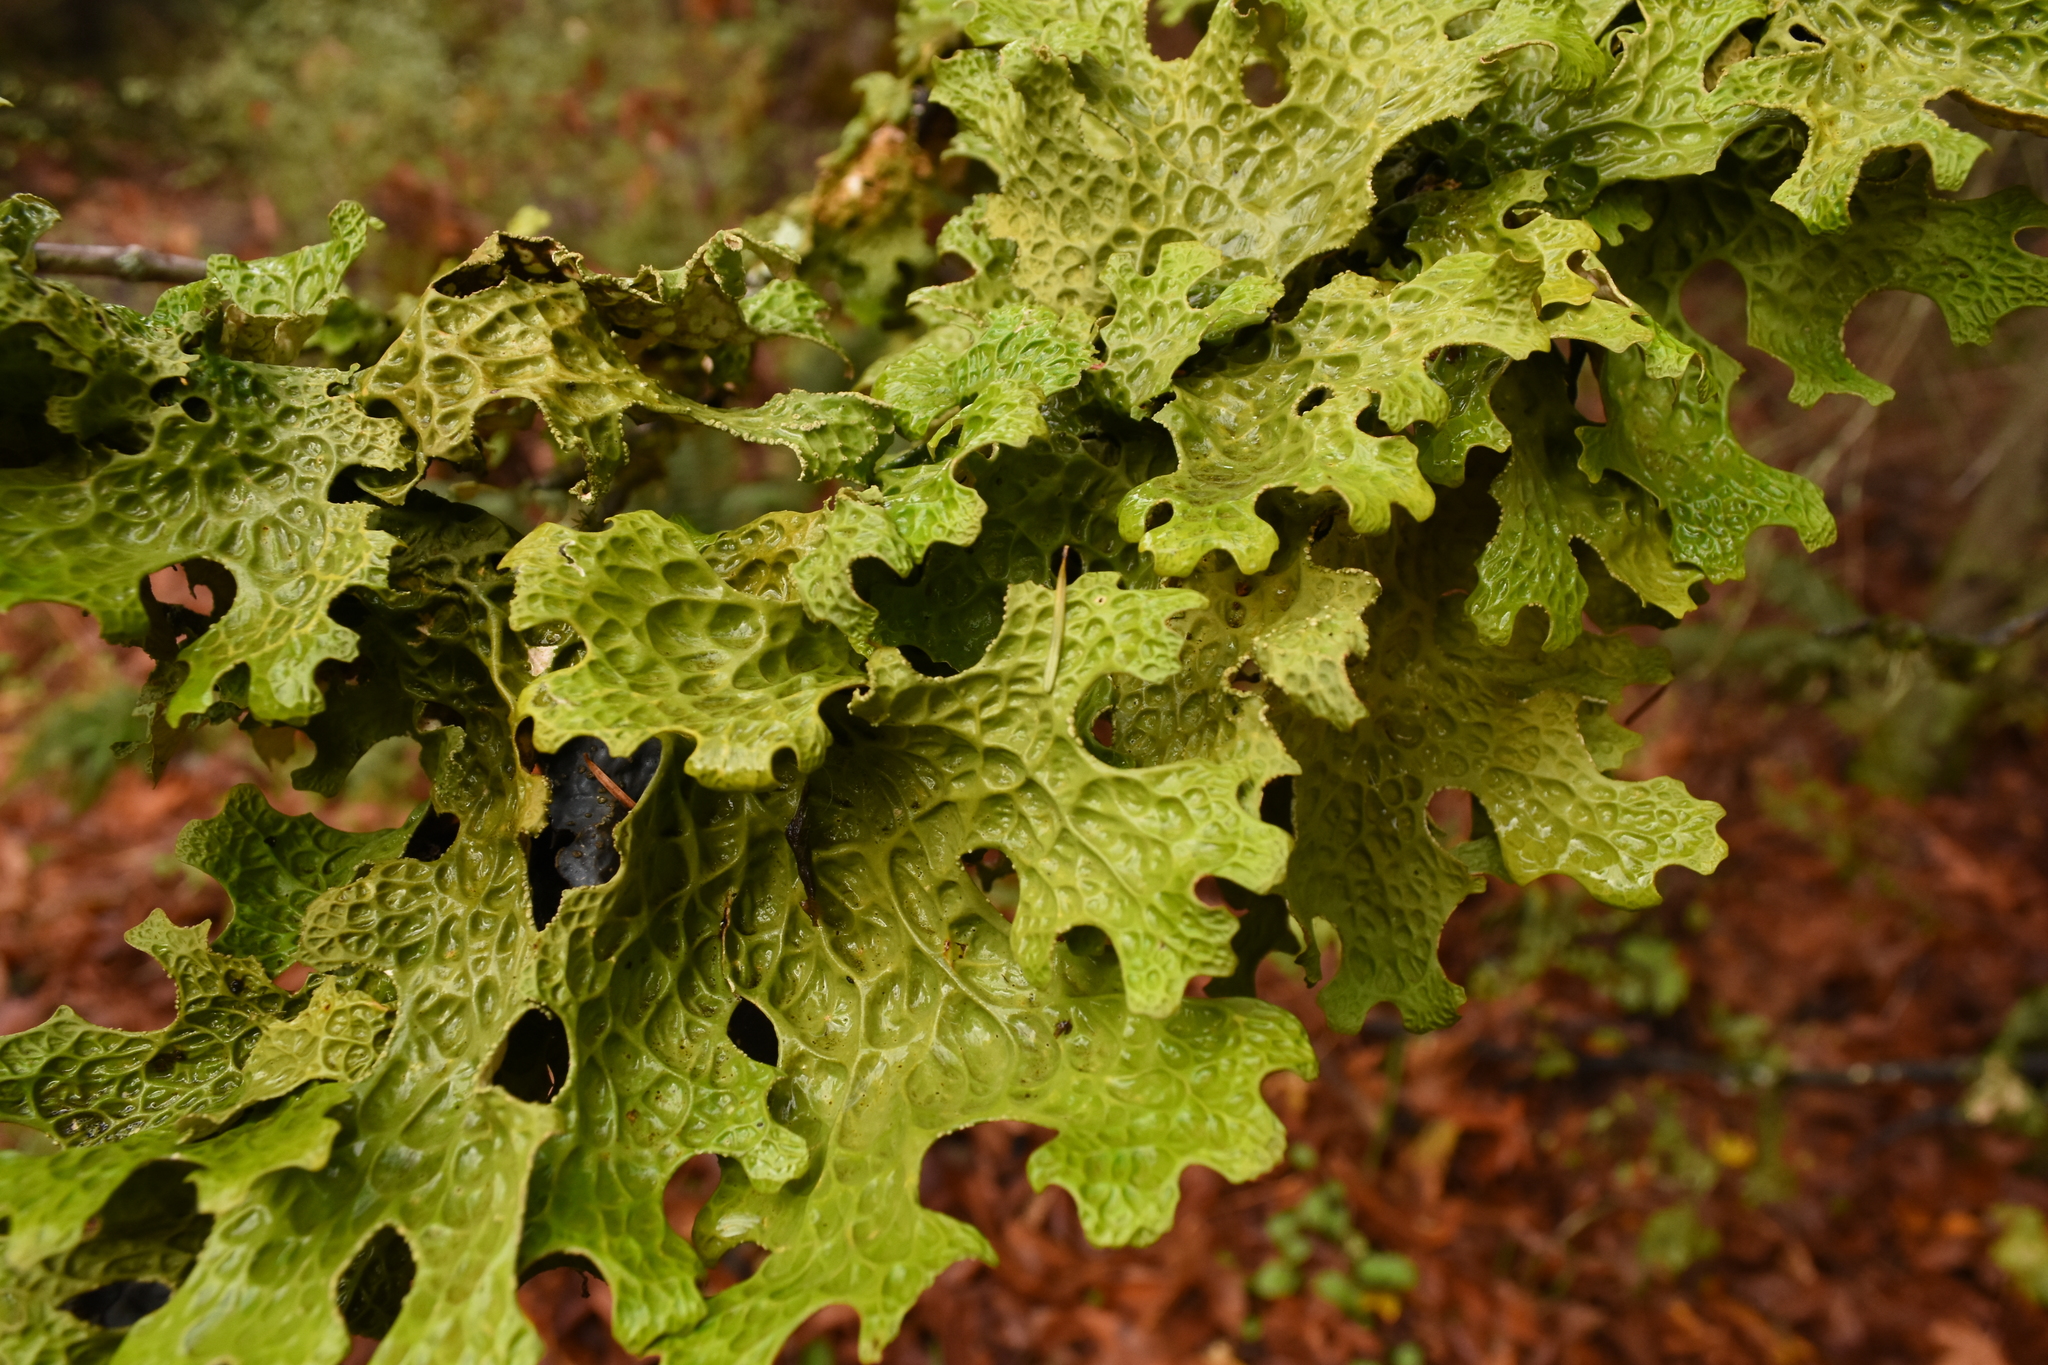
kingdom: Fungi
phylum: Ascomycota
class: Lecanoromycetes
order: Peltigerales
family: Lobariaceae
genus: Lobaria
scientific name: Lobaria pulmonaria
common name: Lungwort
